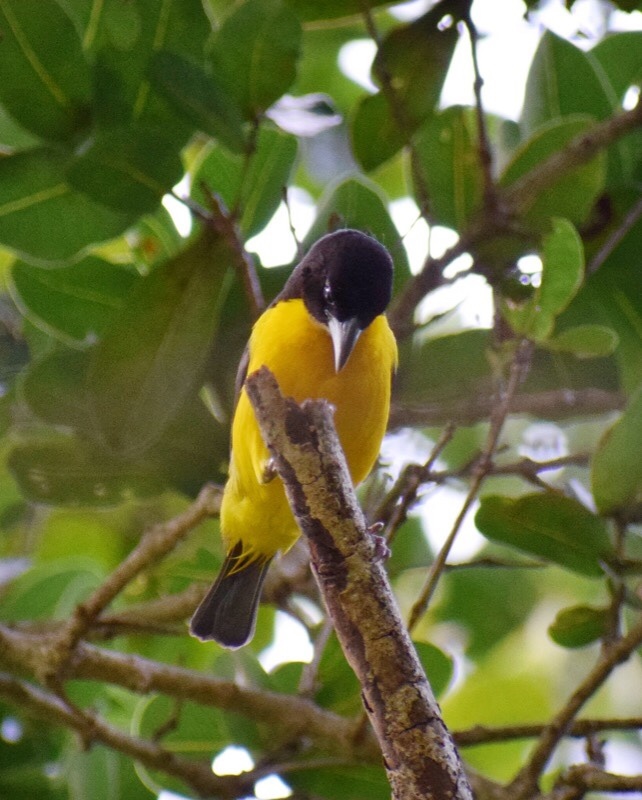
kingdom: Animalia
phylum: Chordata
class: Aves
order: Passeriformes
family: Ploceidae
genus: Ploceus
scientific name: Ploceus bicolor
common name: Dark-backed weaver
